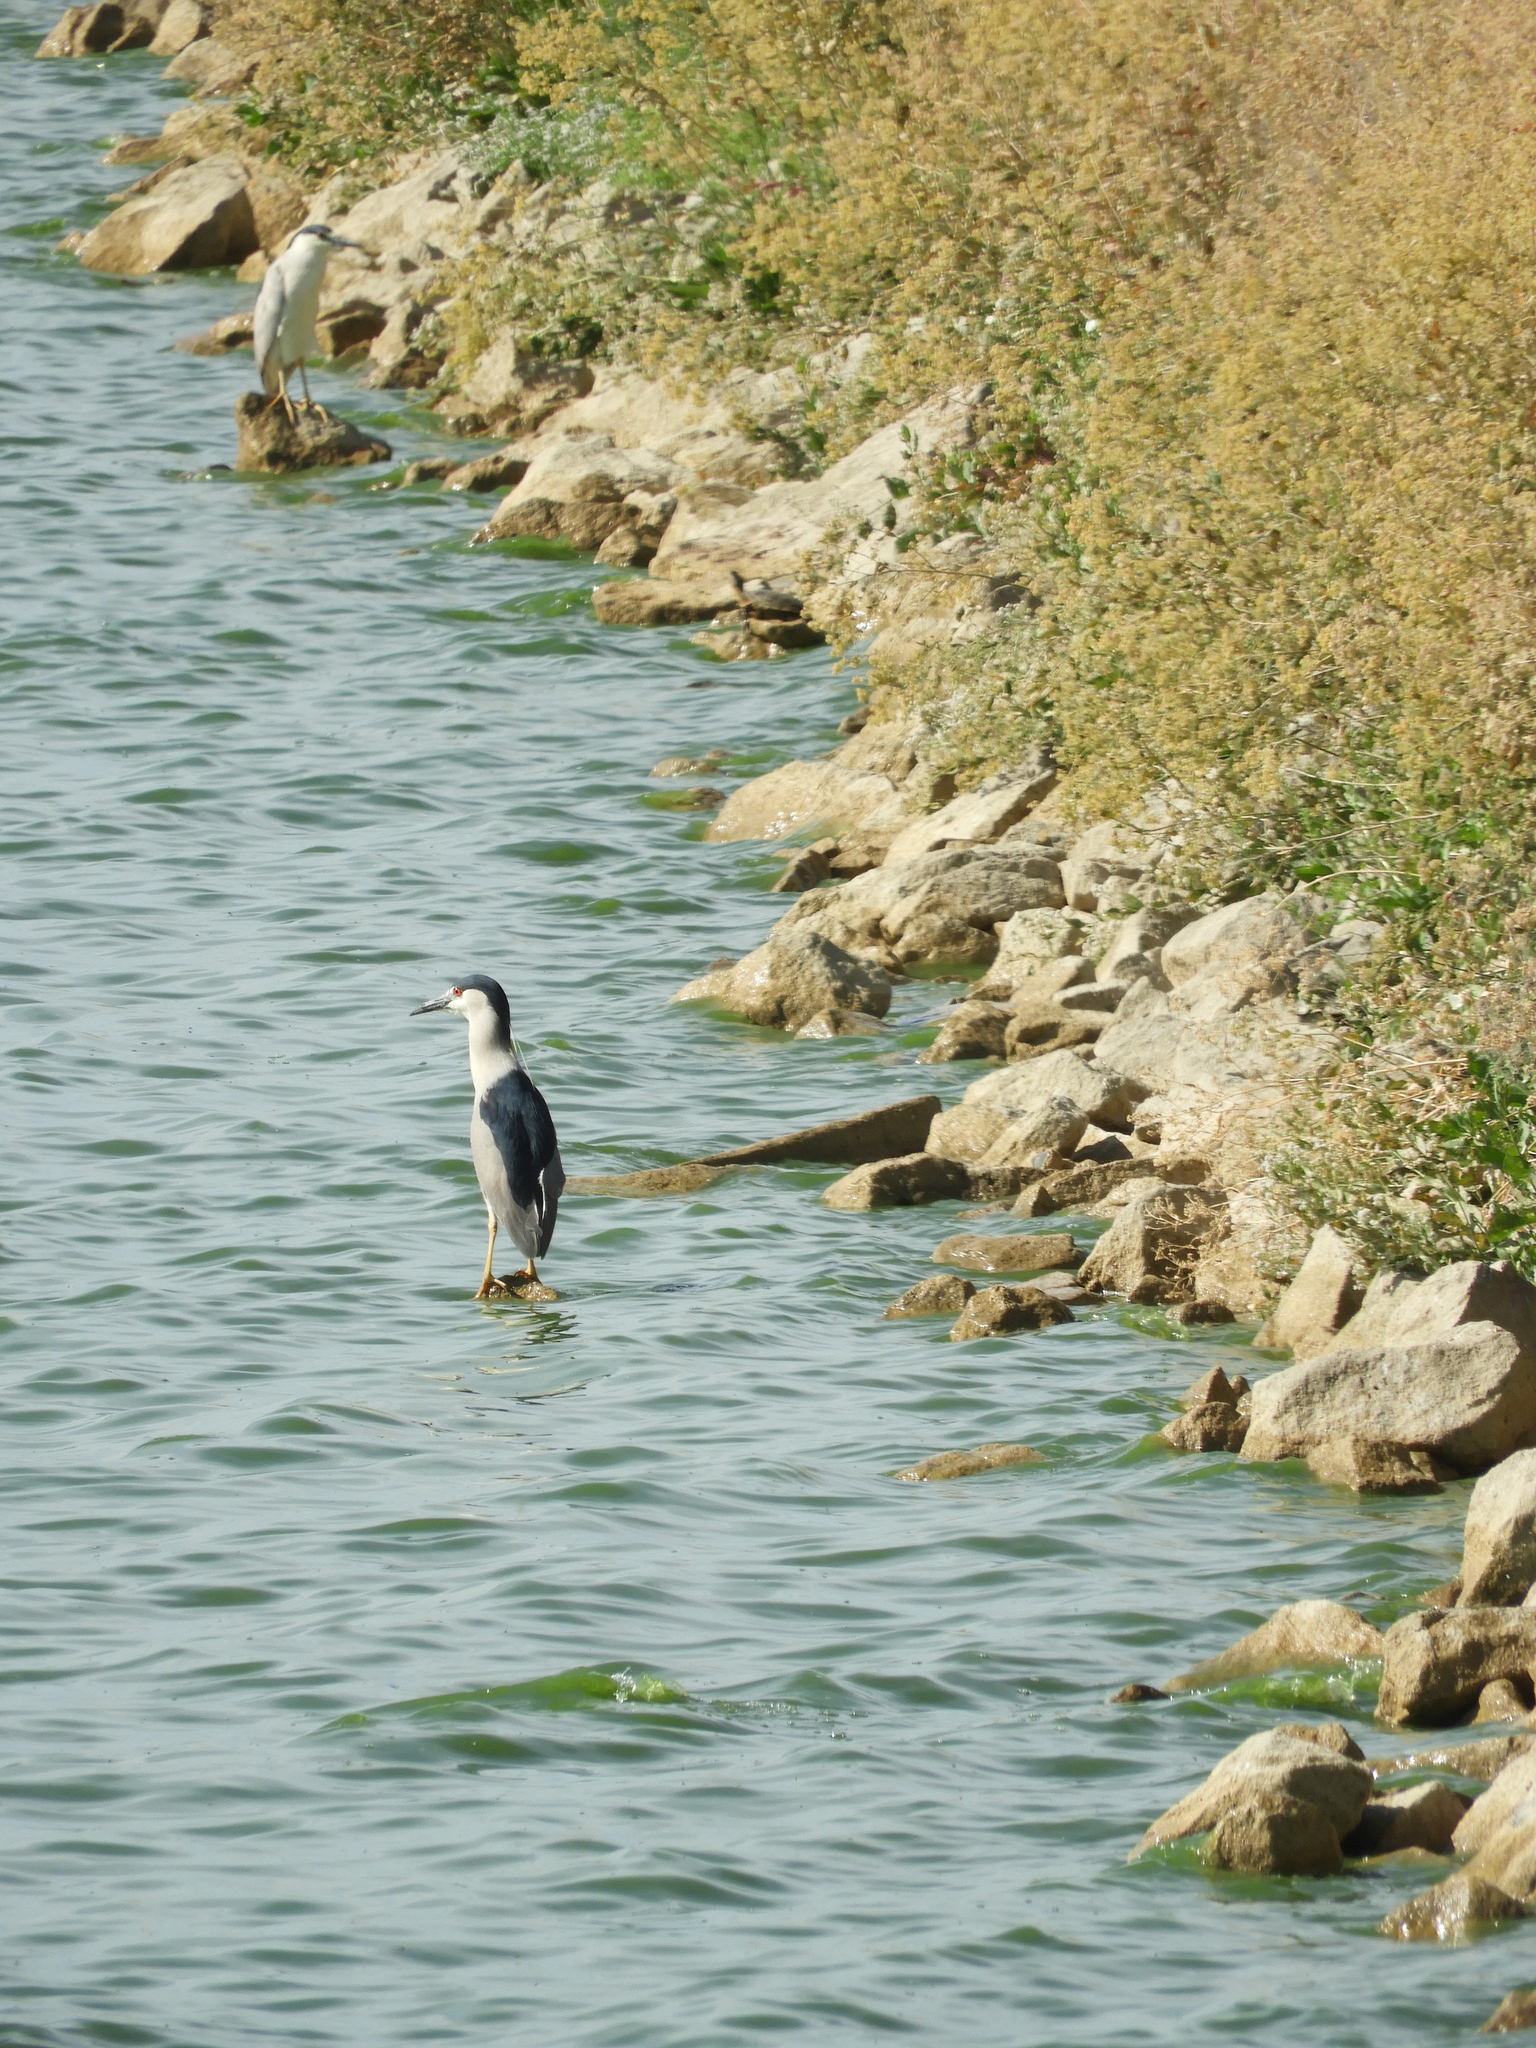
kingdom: Animalia
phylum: Chordata
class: Aves
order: Pelecaniformes
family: Ardeidae
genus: Nycticorax
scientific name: Nycticorax nycticorax
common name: Black-crowned night heron
